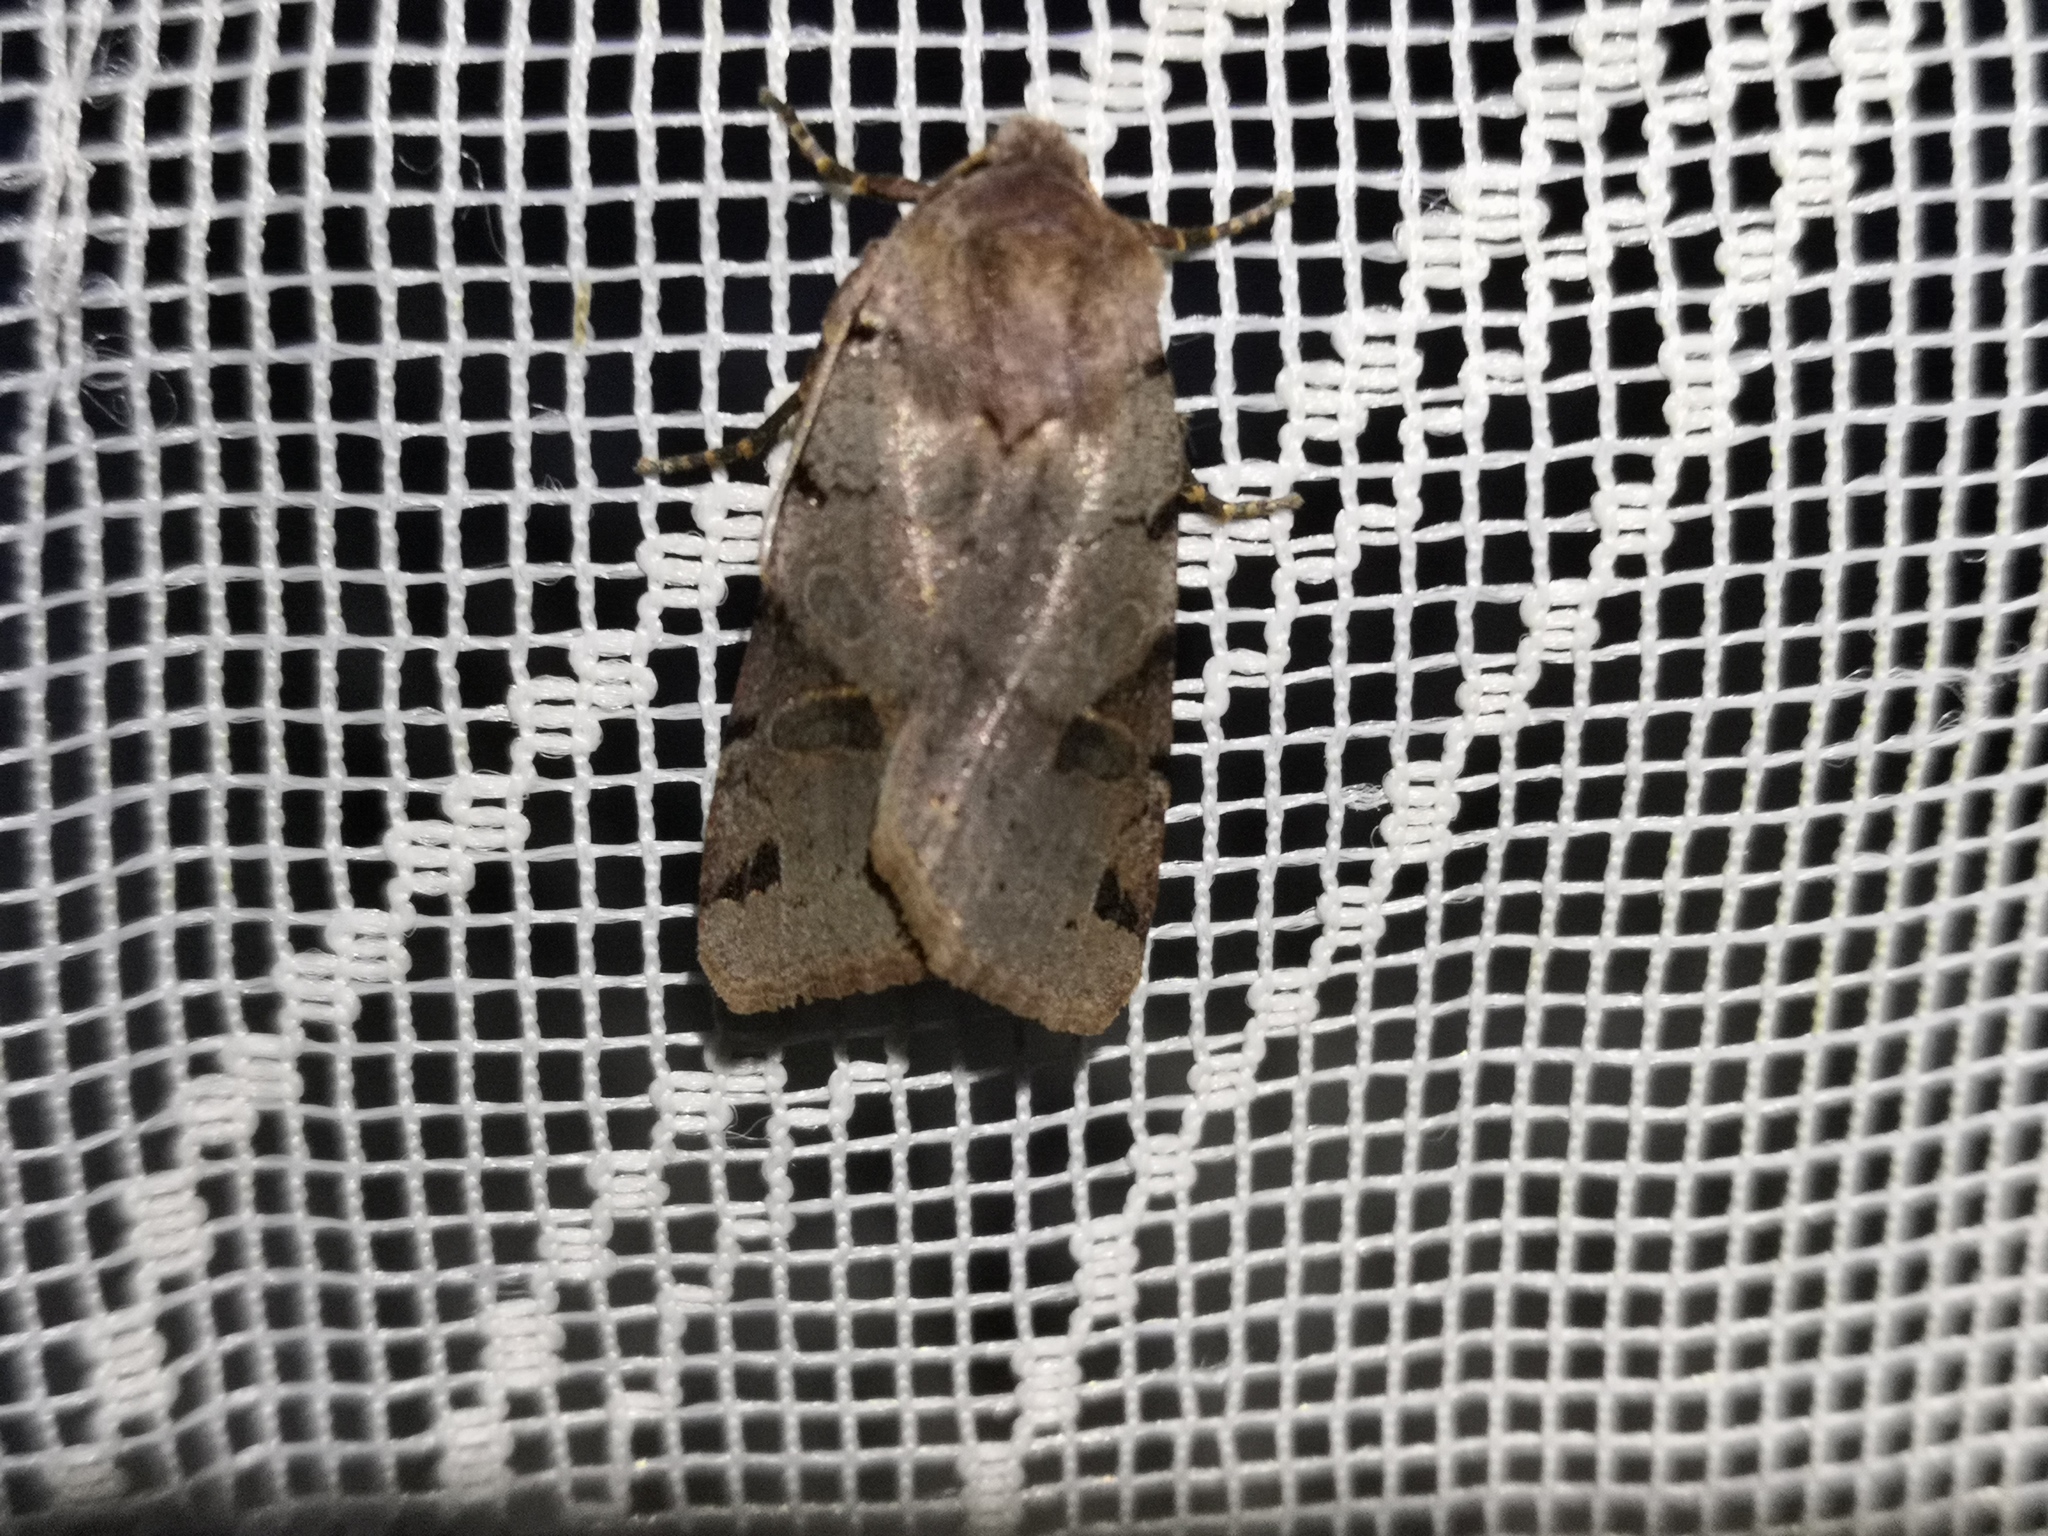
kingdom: Animalia
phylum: Arthropoda
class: Insecta
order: Lepidoptera
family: Noctuidae
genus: Agrochola
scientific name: Agrochola litura
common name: Brown-spot pinion
